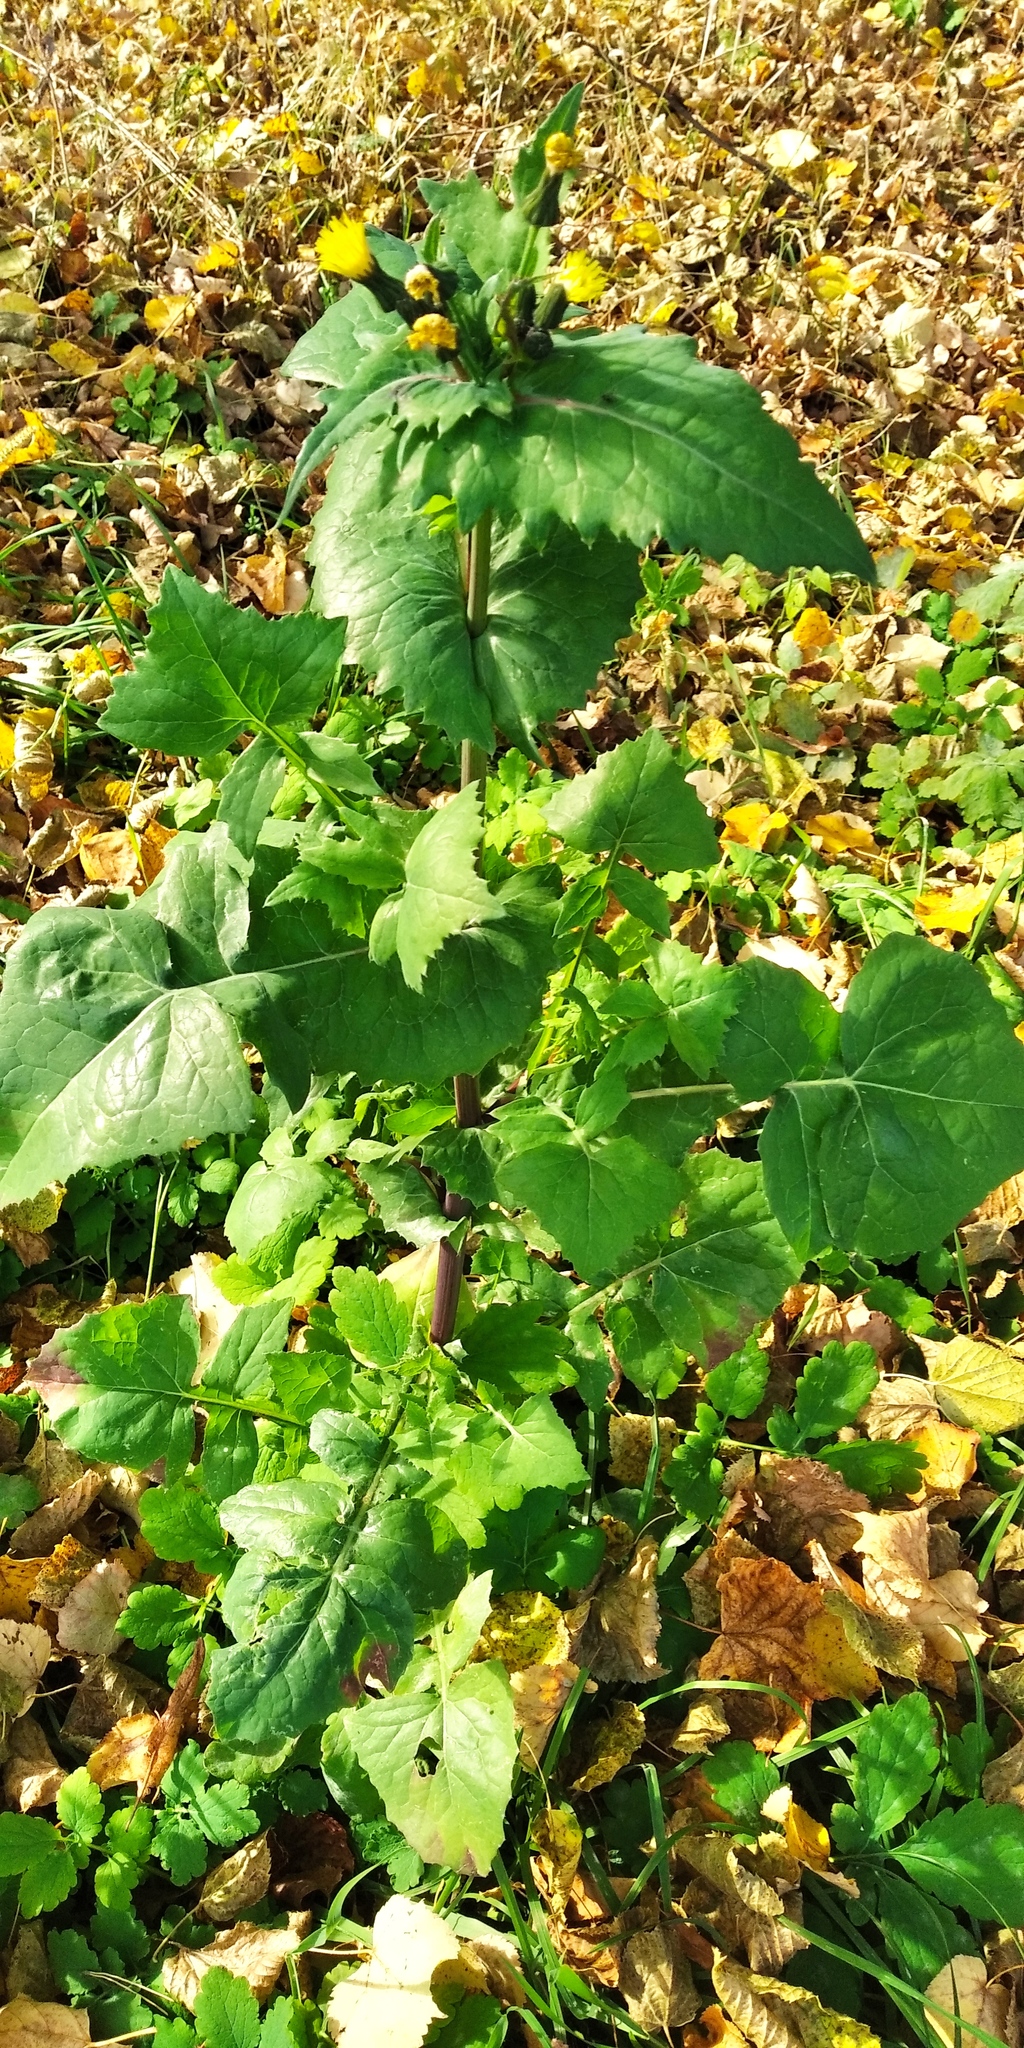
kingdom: Plantae
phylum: Tracheophyta
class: Magnoliopsida
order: Asterales
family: Asteraceae
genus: Sonchus
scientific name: Sonchus oleraceus
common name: Common sowthistle
